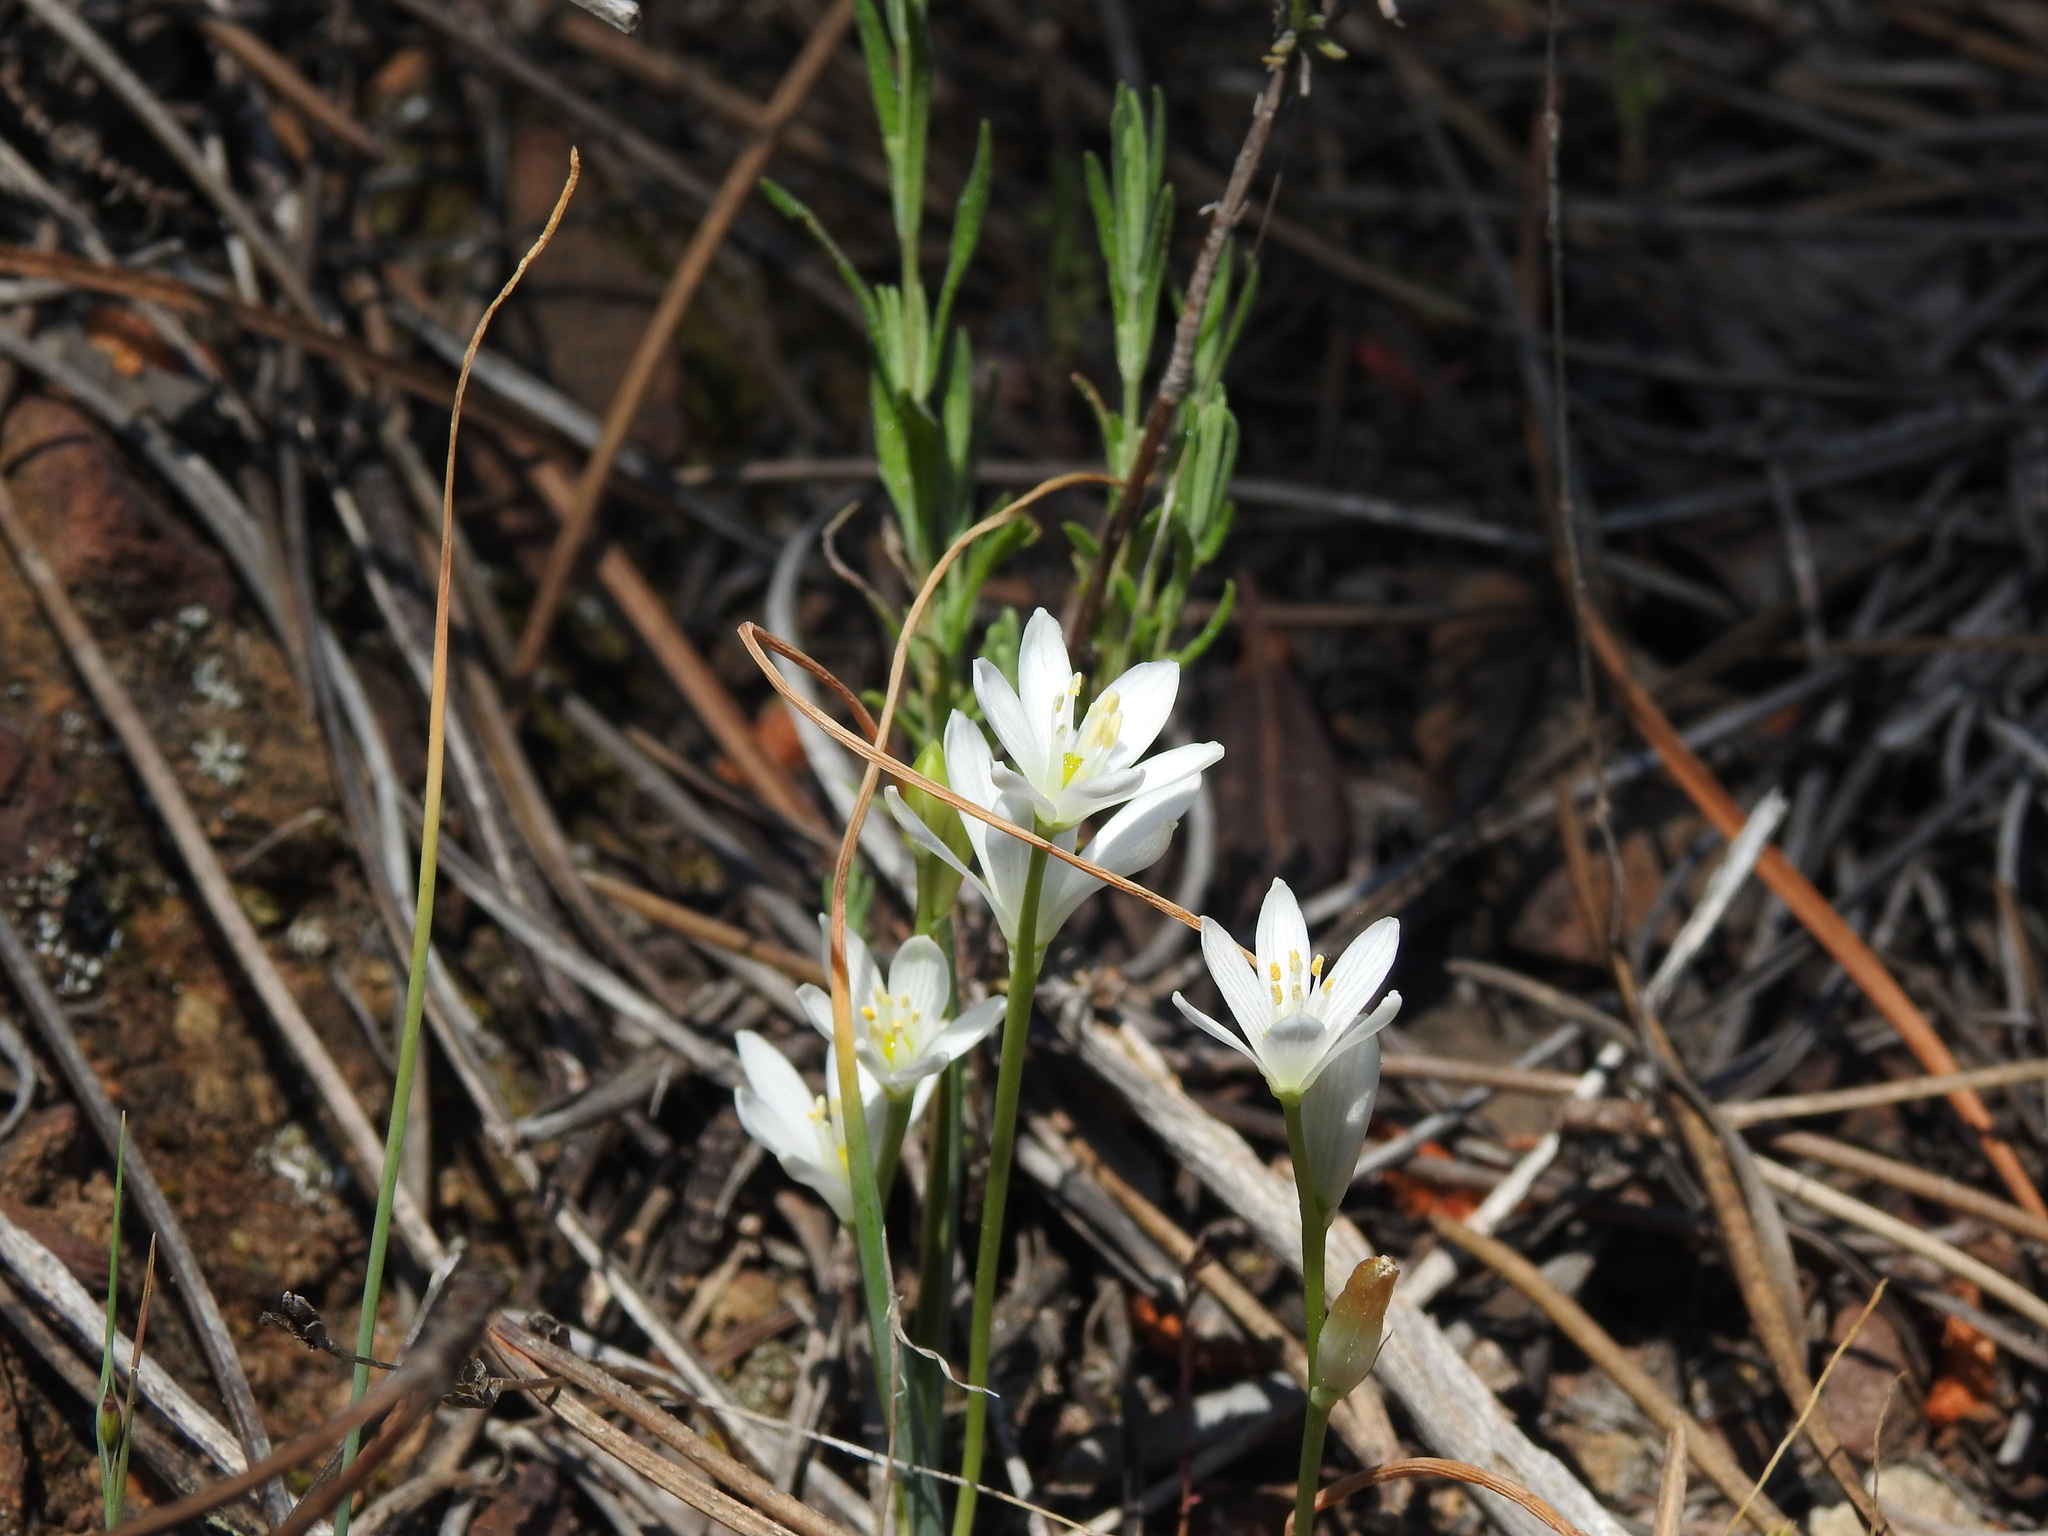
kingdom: Plantae
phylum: Tracheophyta
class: Liliopsida
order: Asparagales
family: Asparagaceae
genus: Ornithogalum
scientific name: Ornithogalum broteroi
